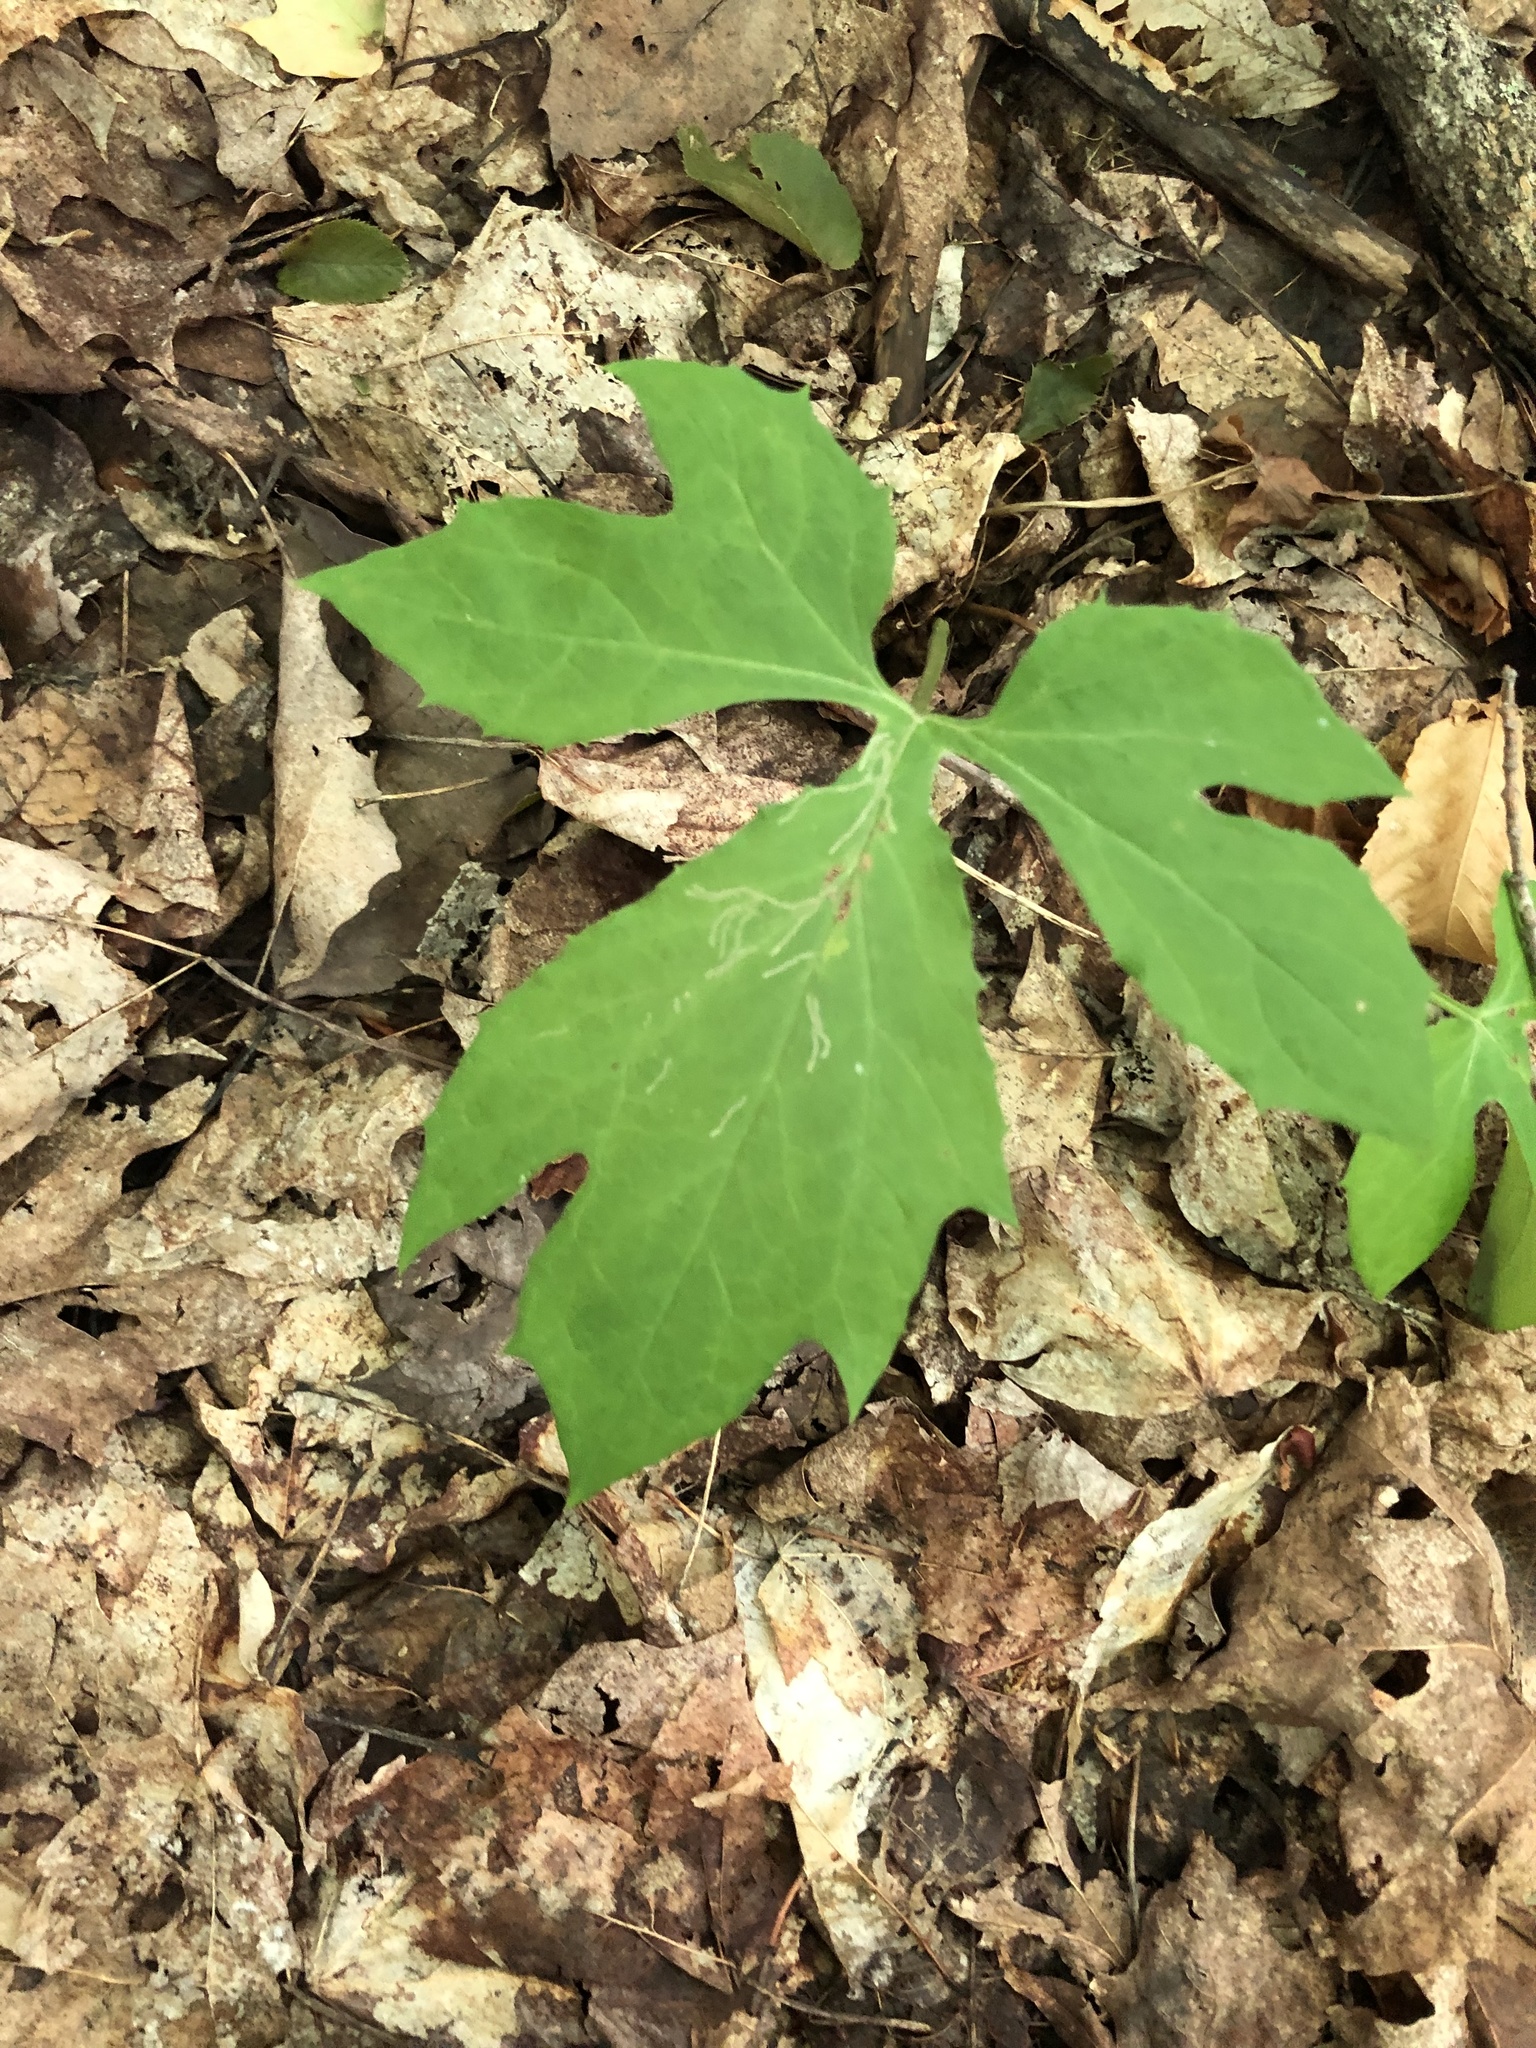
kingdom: Plantae
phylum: Tracheophyta
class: Magnoliopsida
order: Asterales
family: Asteraceae
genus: Nabalus
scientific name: Nabalus
